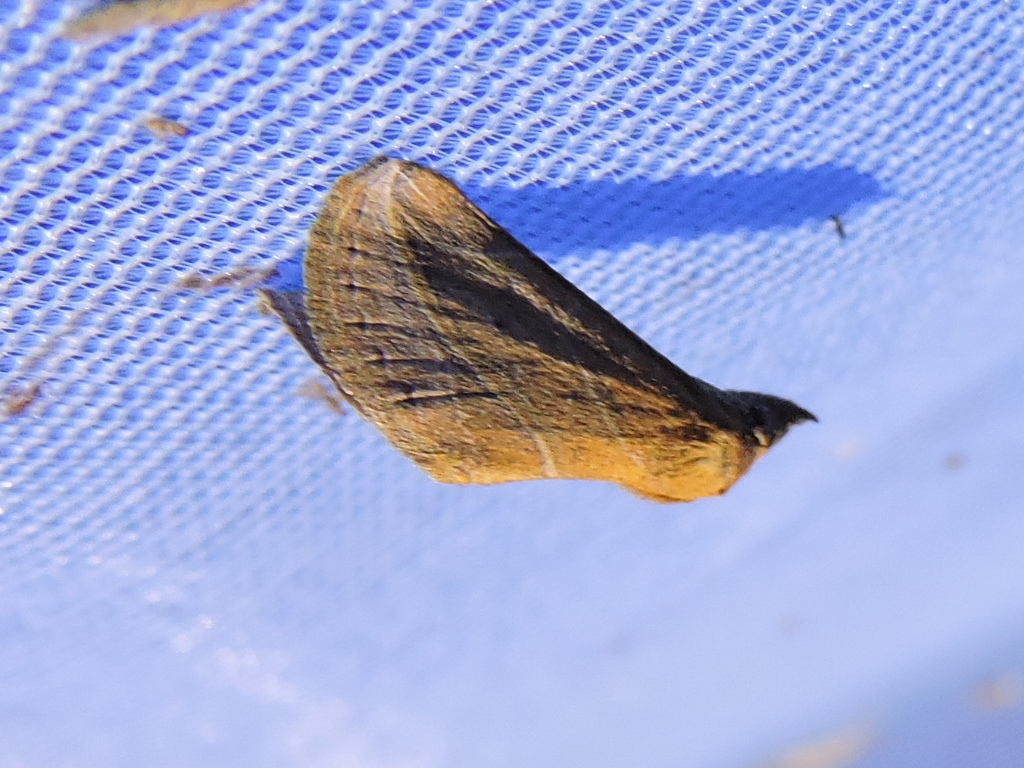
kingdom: Animalia
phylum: Arthropoda
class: Insecta
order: Lepidoptera
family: Erebidae
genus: Phyprosopus
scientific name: Phyprosopus callitrichoides
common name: Curved-lined owlet
